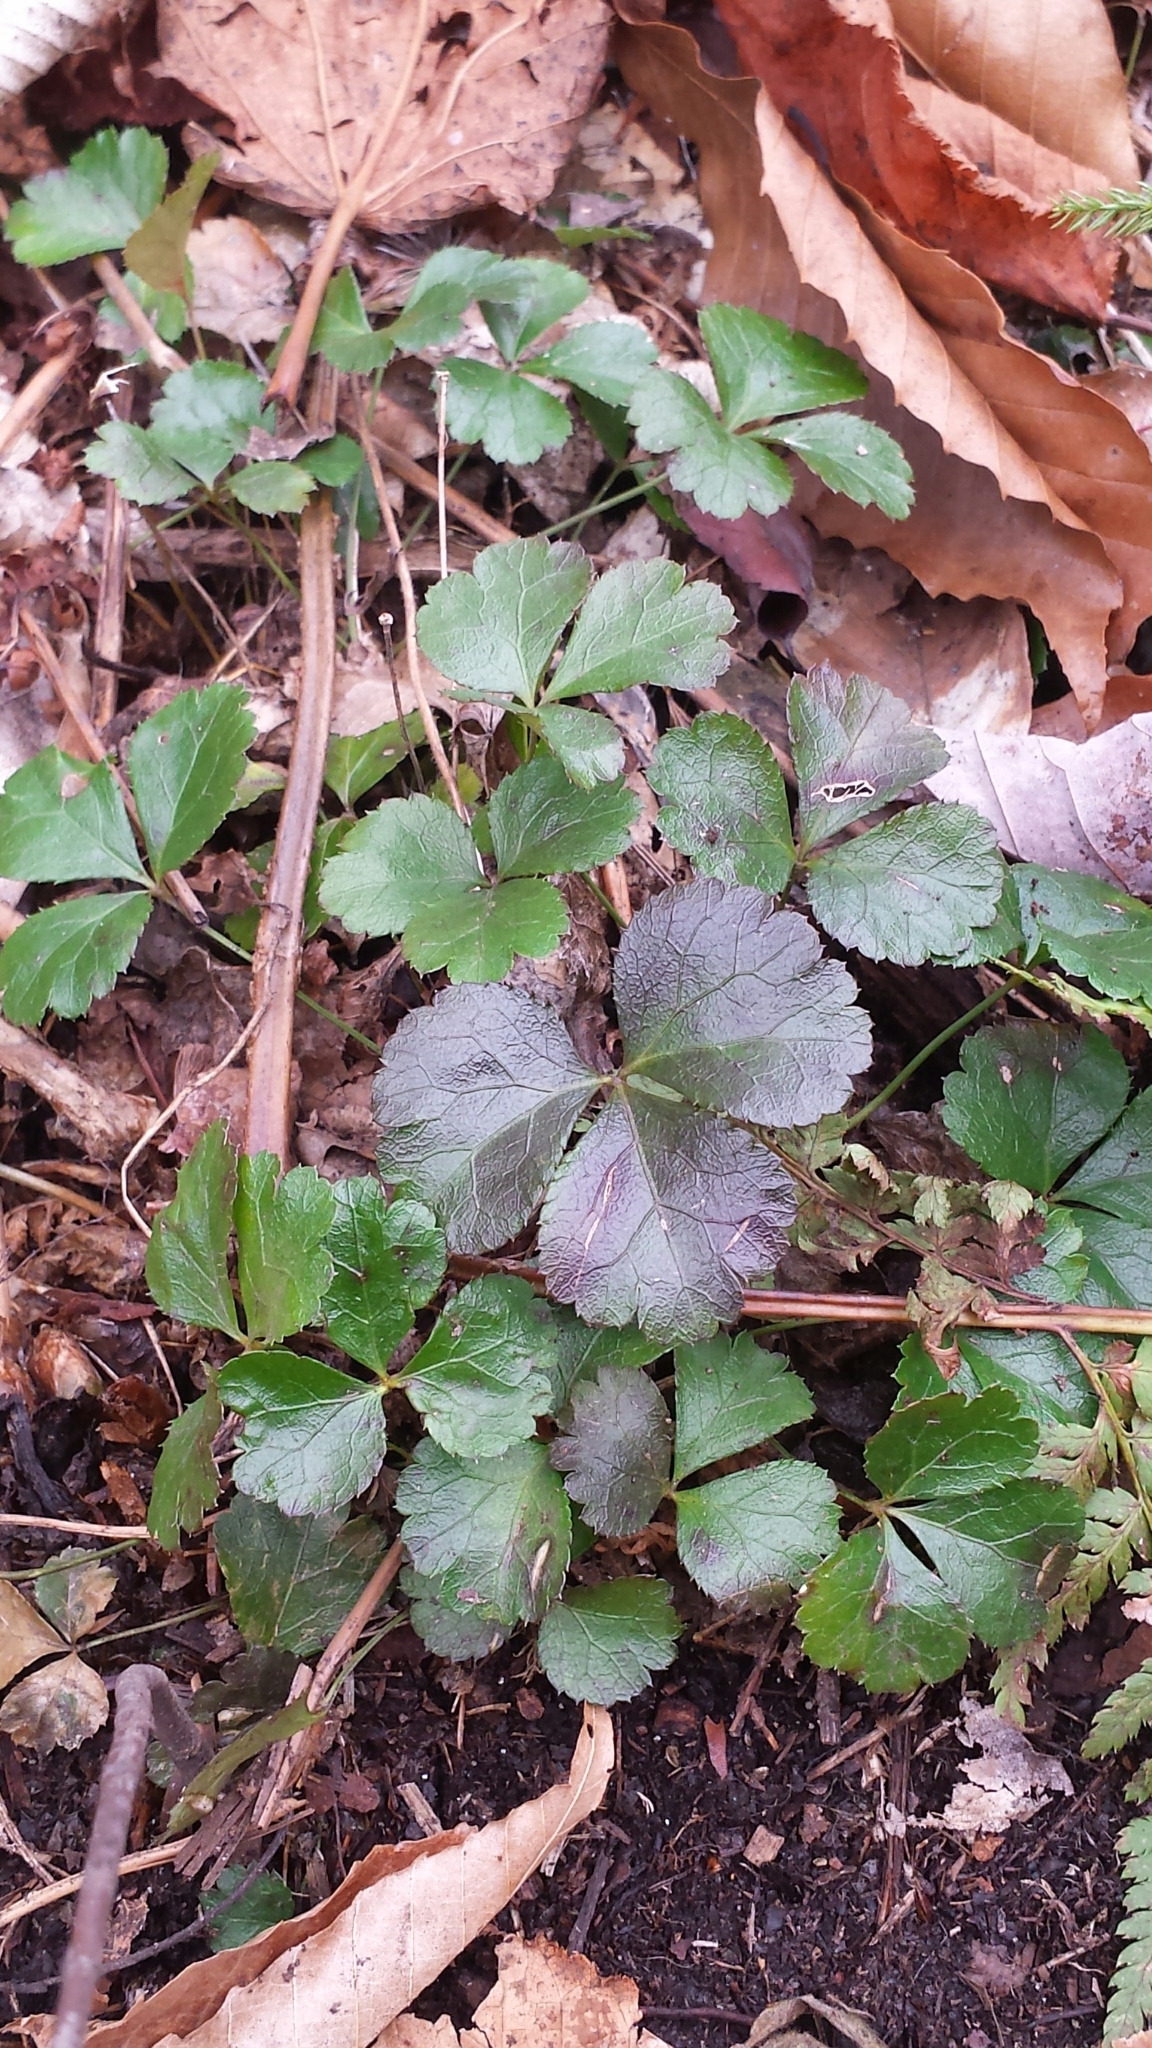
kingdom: Plantae
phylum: Tracheophyta
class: Magnoliopsida
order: Ranunculales
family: Ranunculaceae
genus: Coptis
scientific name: Coptis trifolia
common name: Canker-root
